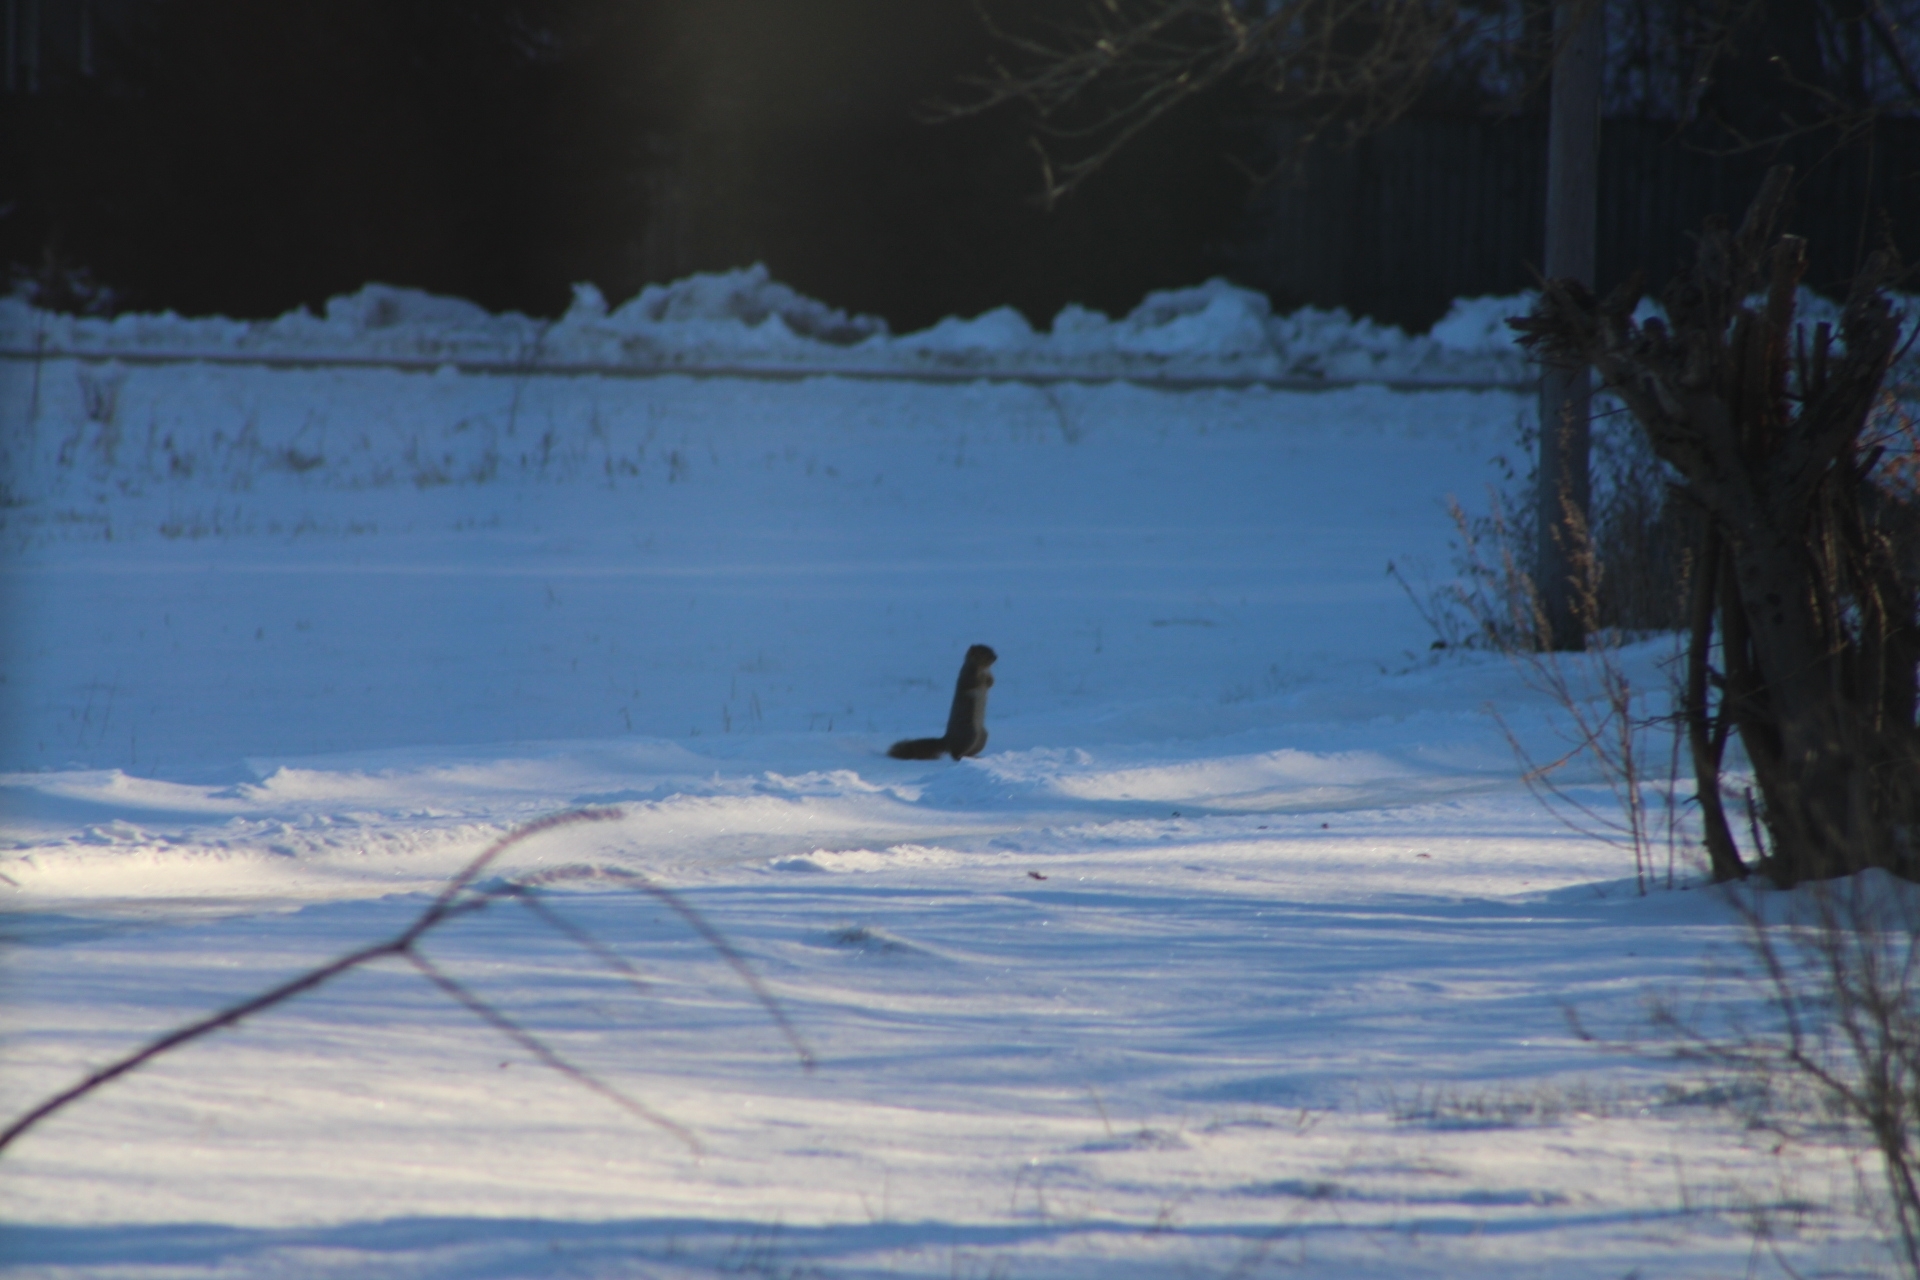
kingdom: Animalia
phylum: Chordata
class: Mammalia
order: Rodentia
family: Sciuridae
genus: Sciurus
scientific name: Sciurus niger
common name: Fox squirrel
